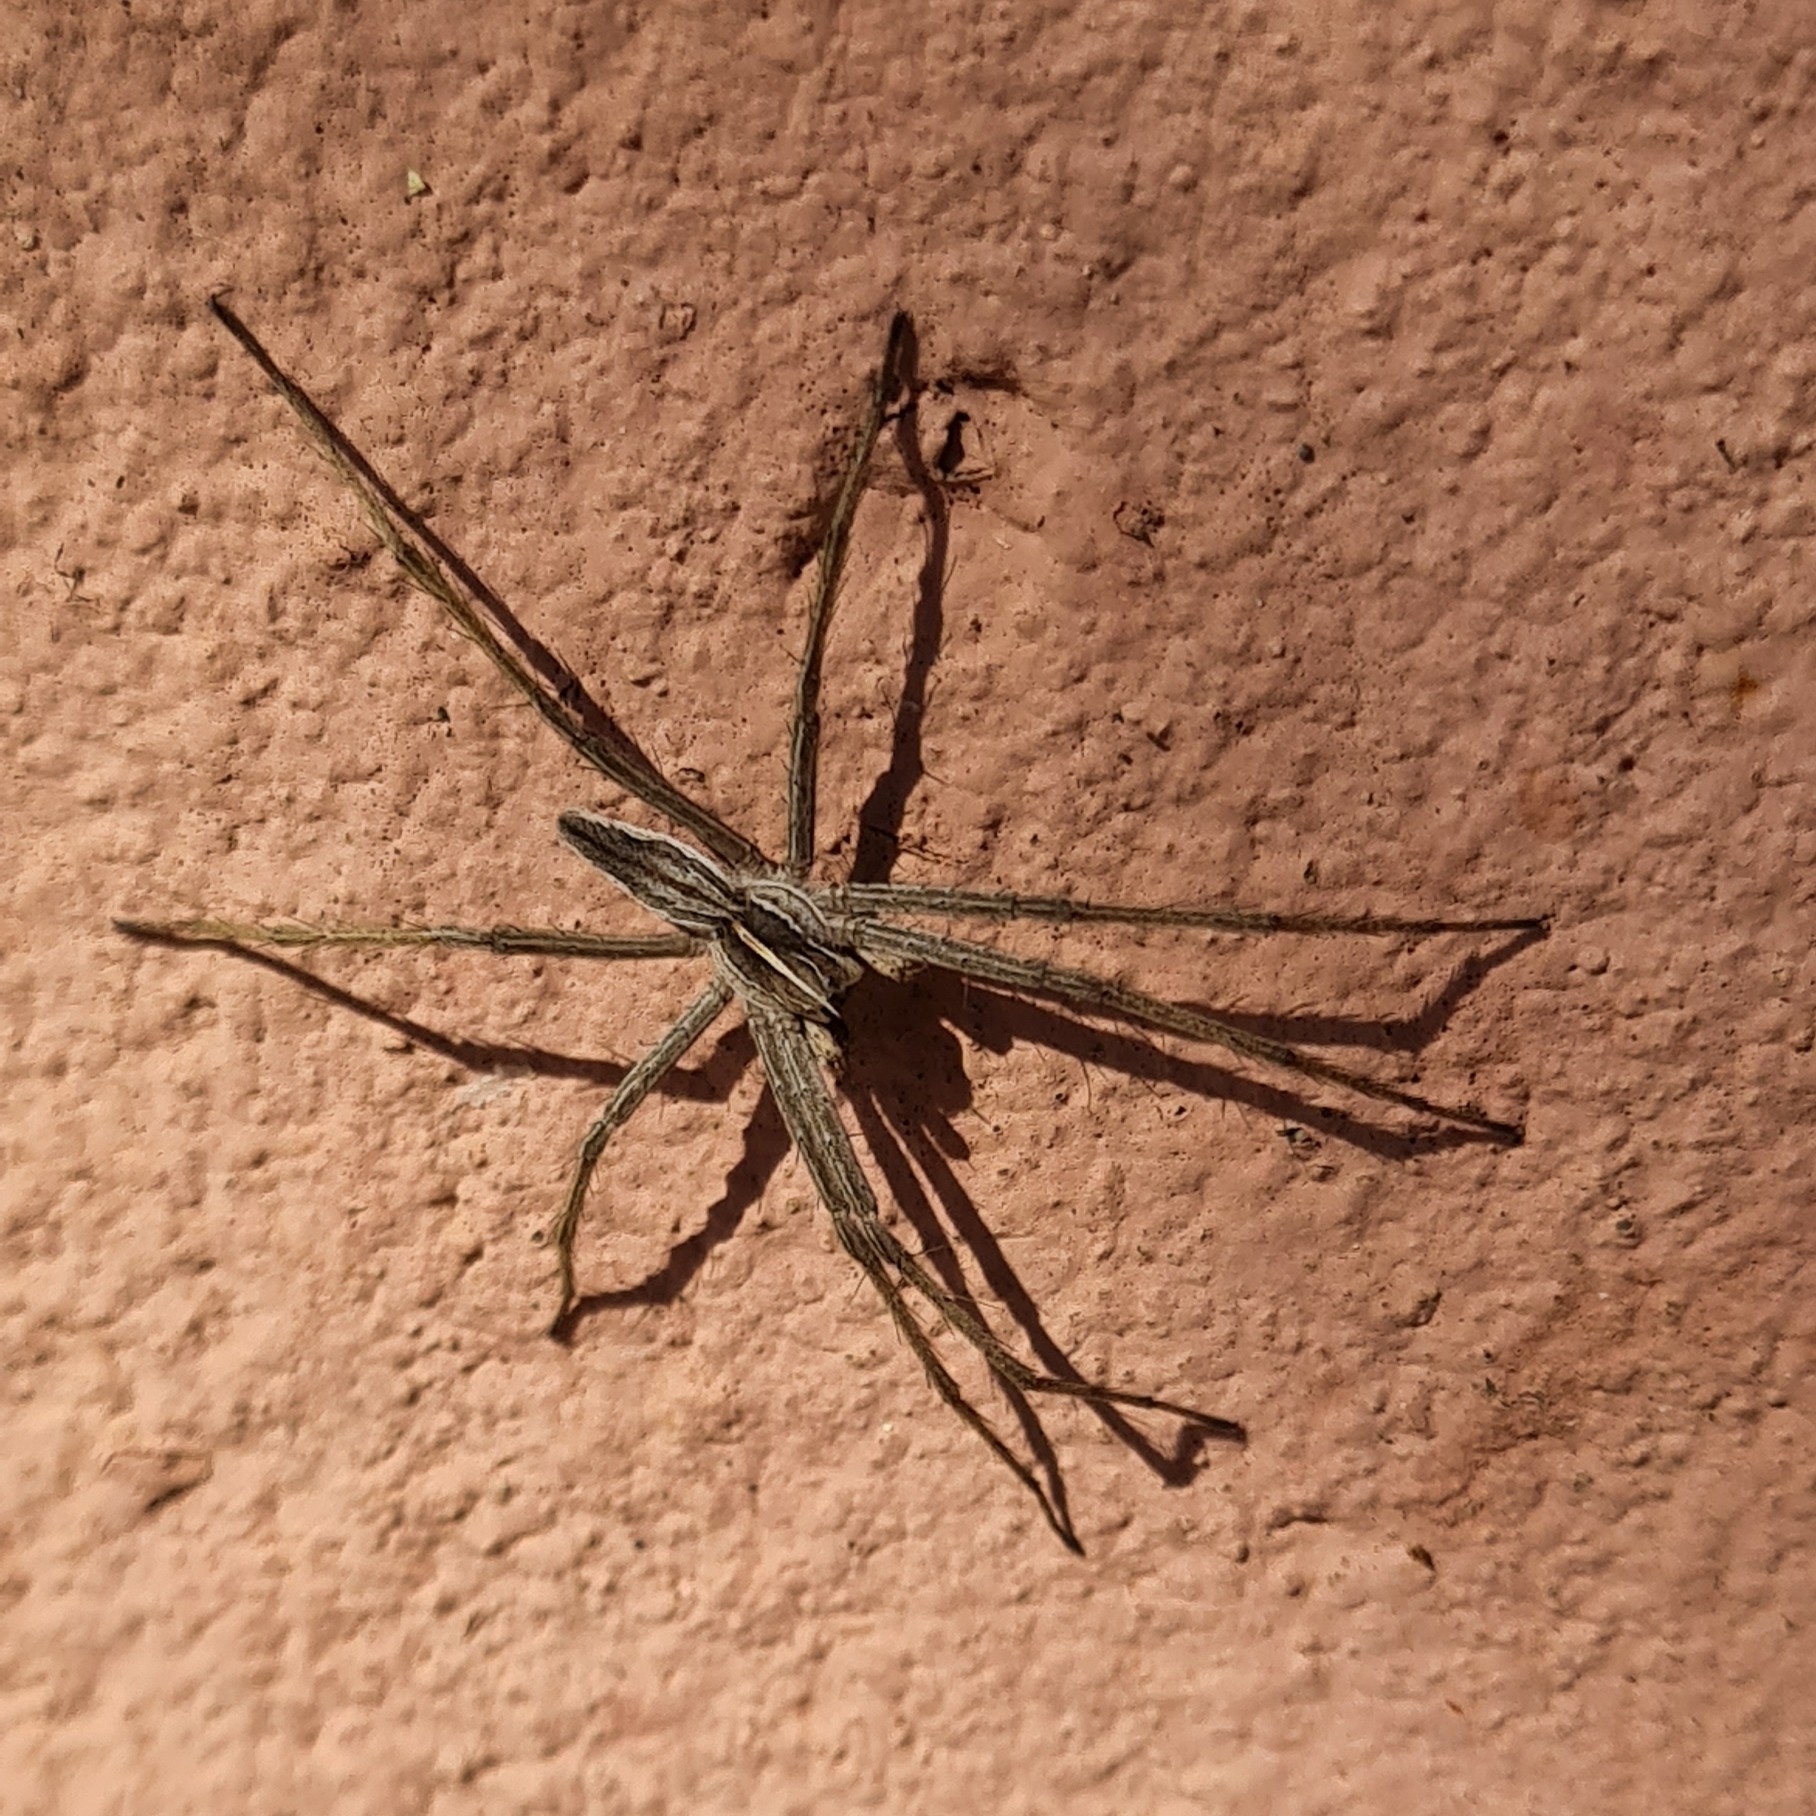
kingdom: Animalia
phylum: Arthropoda
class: Arachnida
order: Araneae
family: Pisauridae
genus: Pisaura
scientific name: Pisaura mirabilis
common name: Tent spider
